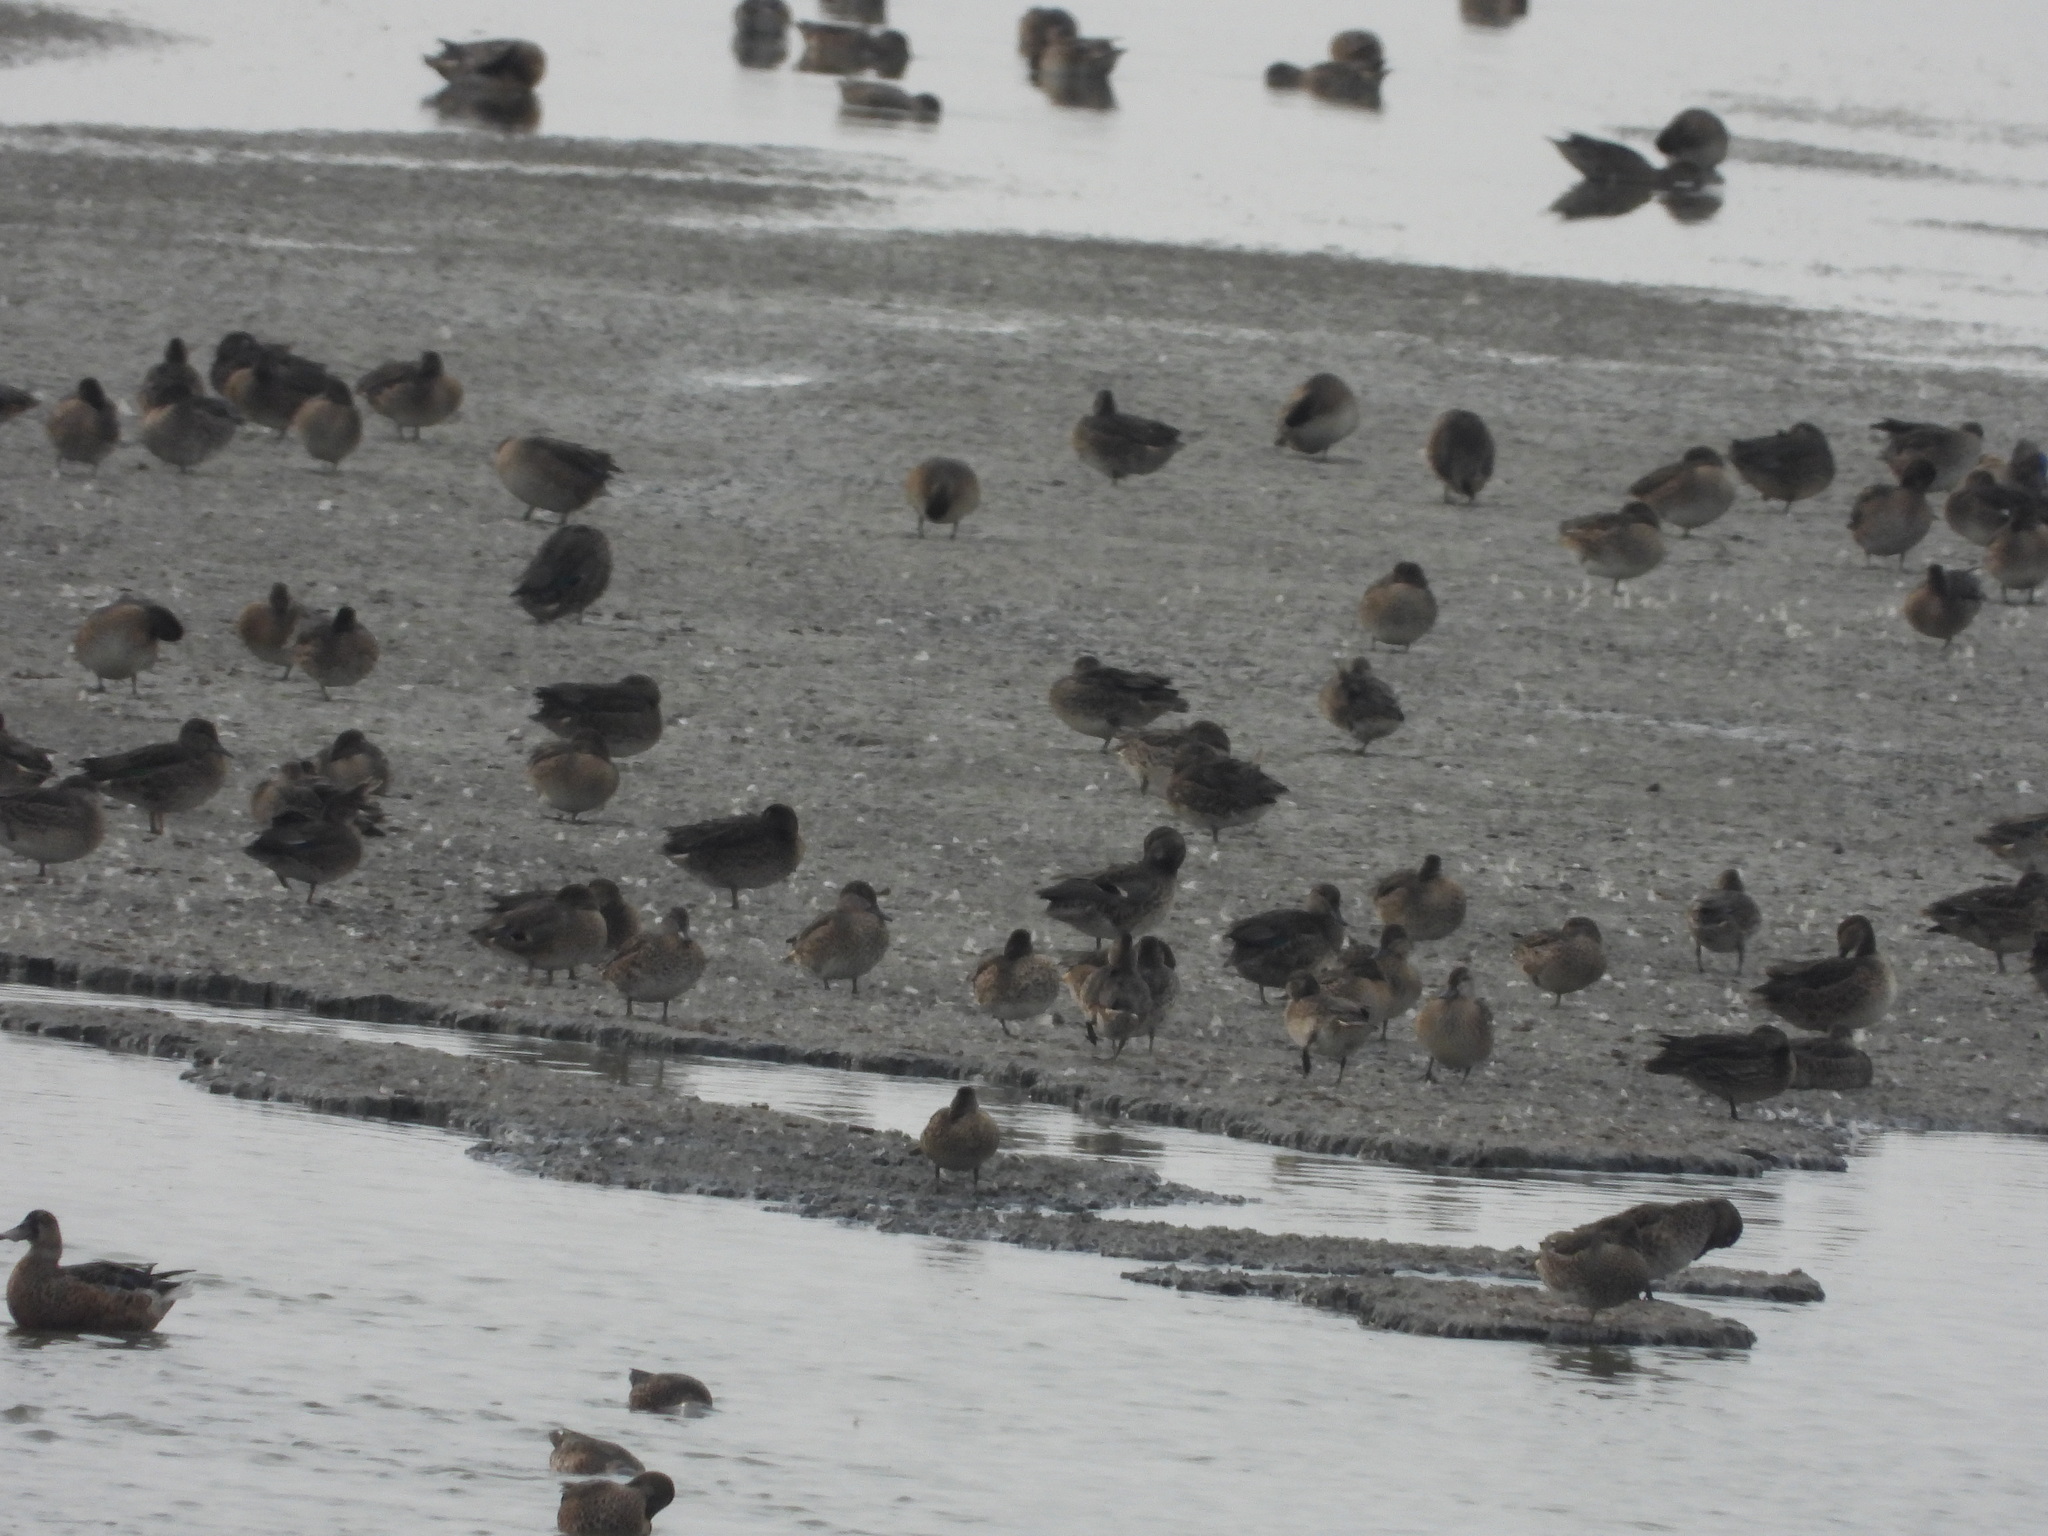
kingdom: Animalia
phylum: Chordata
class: Aves
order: Anseriformes
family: Anatidae
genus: Anas
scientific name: Anas crecca
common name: Eurasian teal
